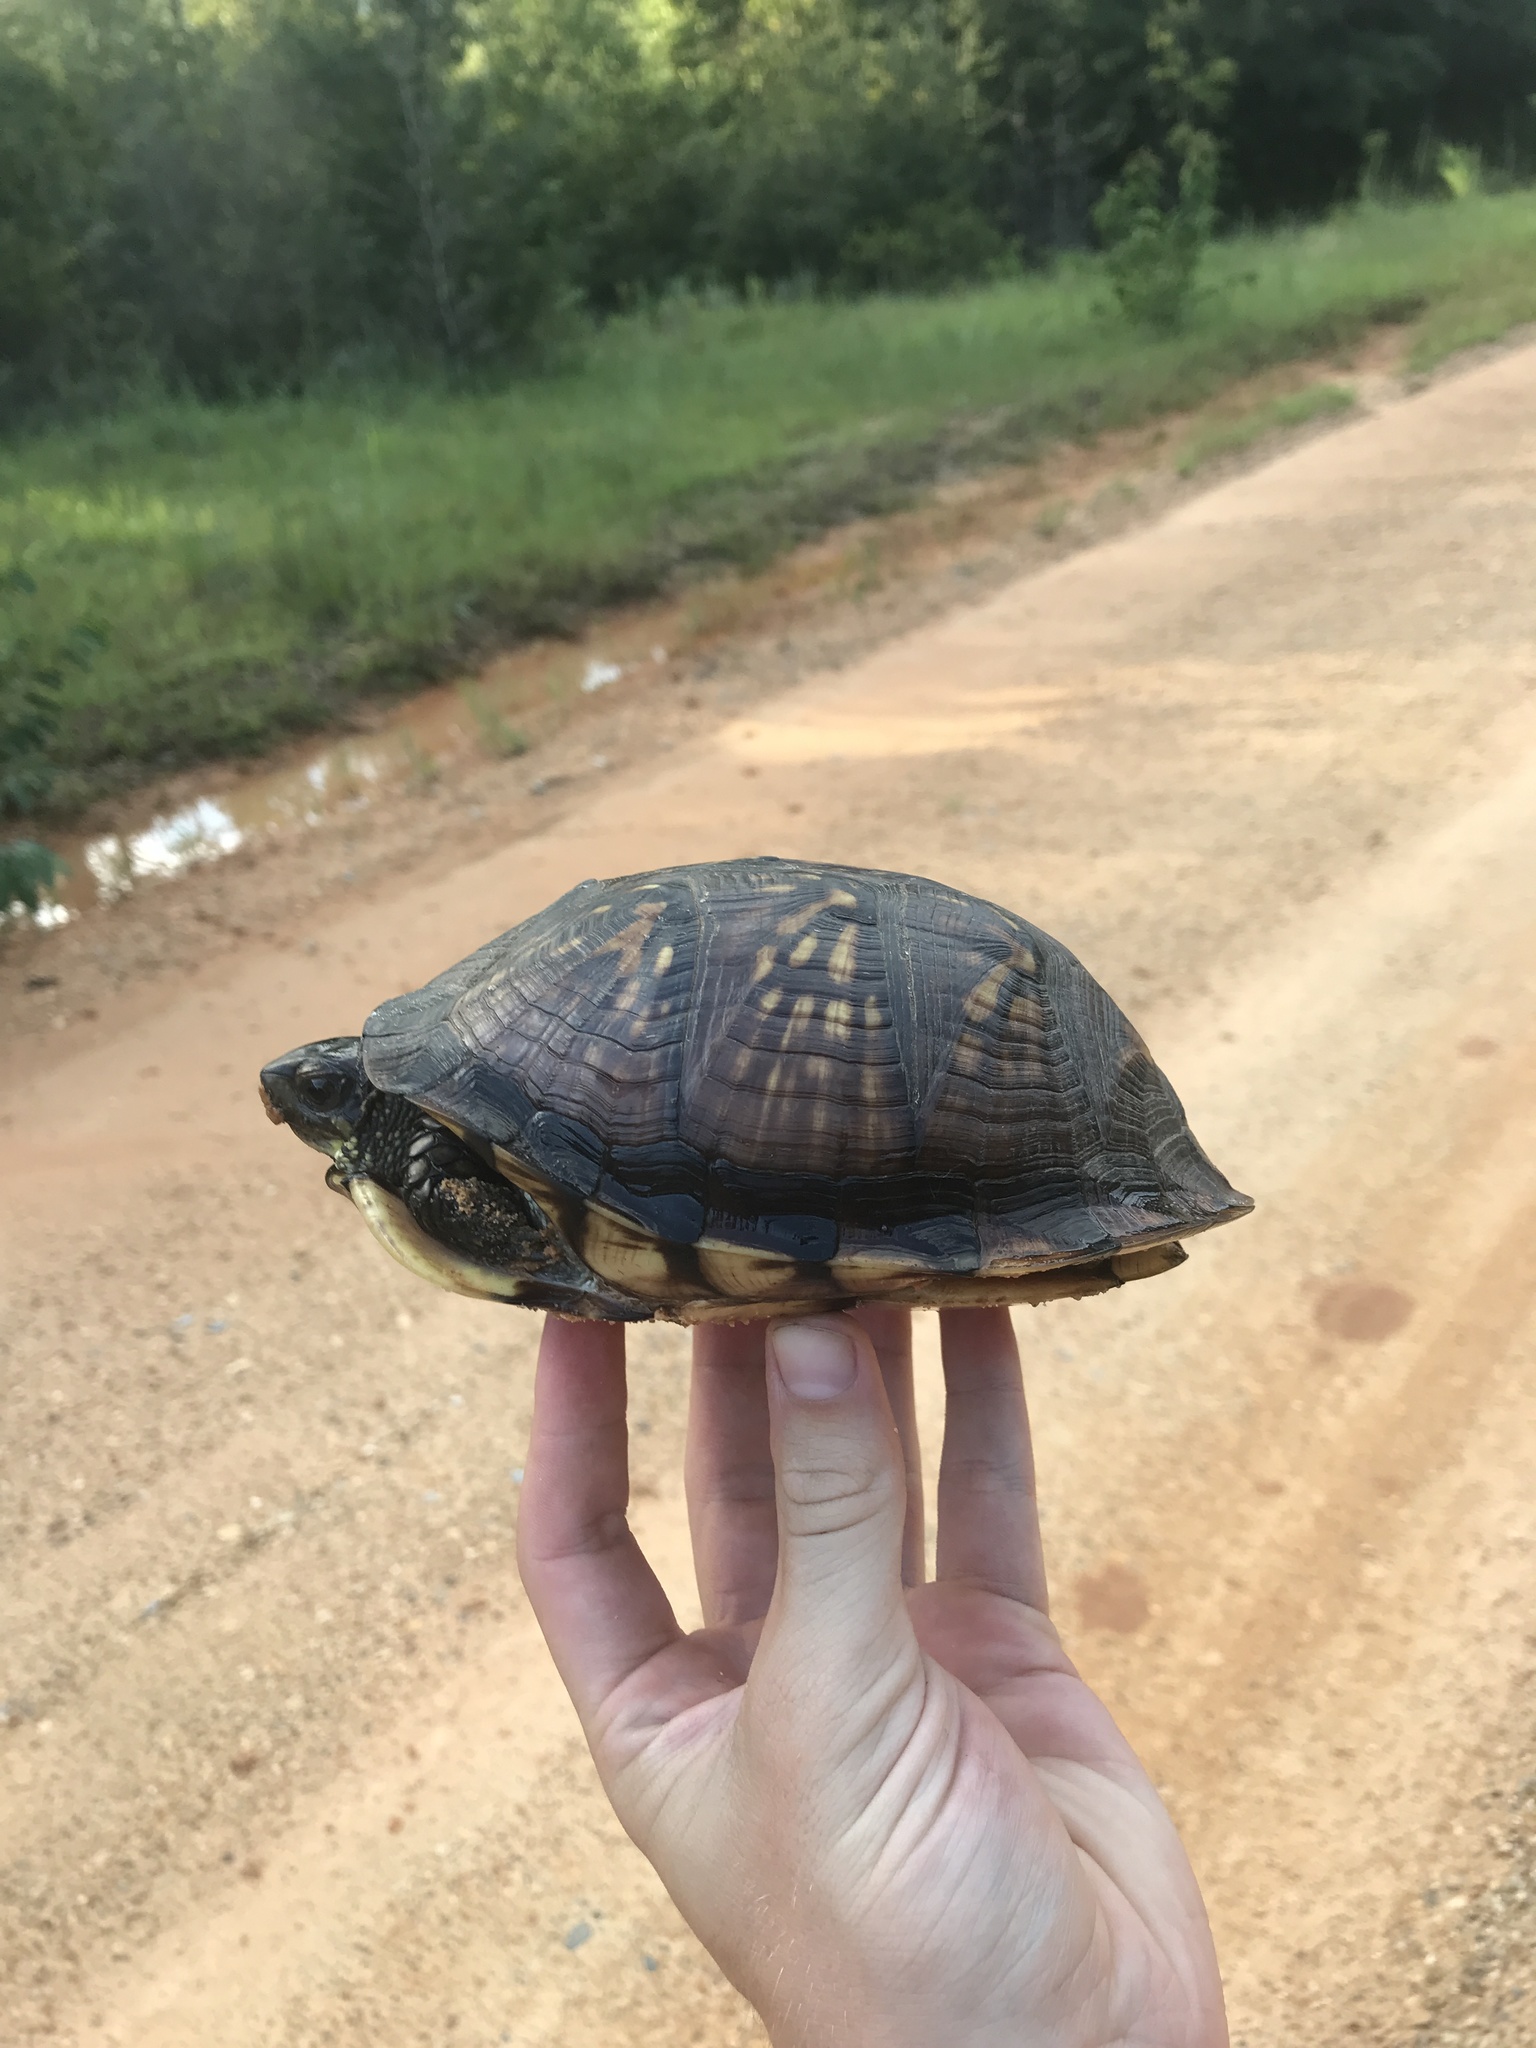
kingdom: Animalia
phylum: Chordata
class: Testudines
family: Emydidae
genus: Terrapene
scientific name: Terrapene carolina
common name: Common box turtle
